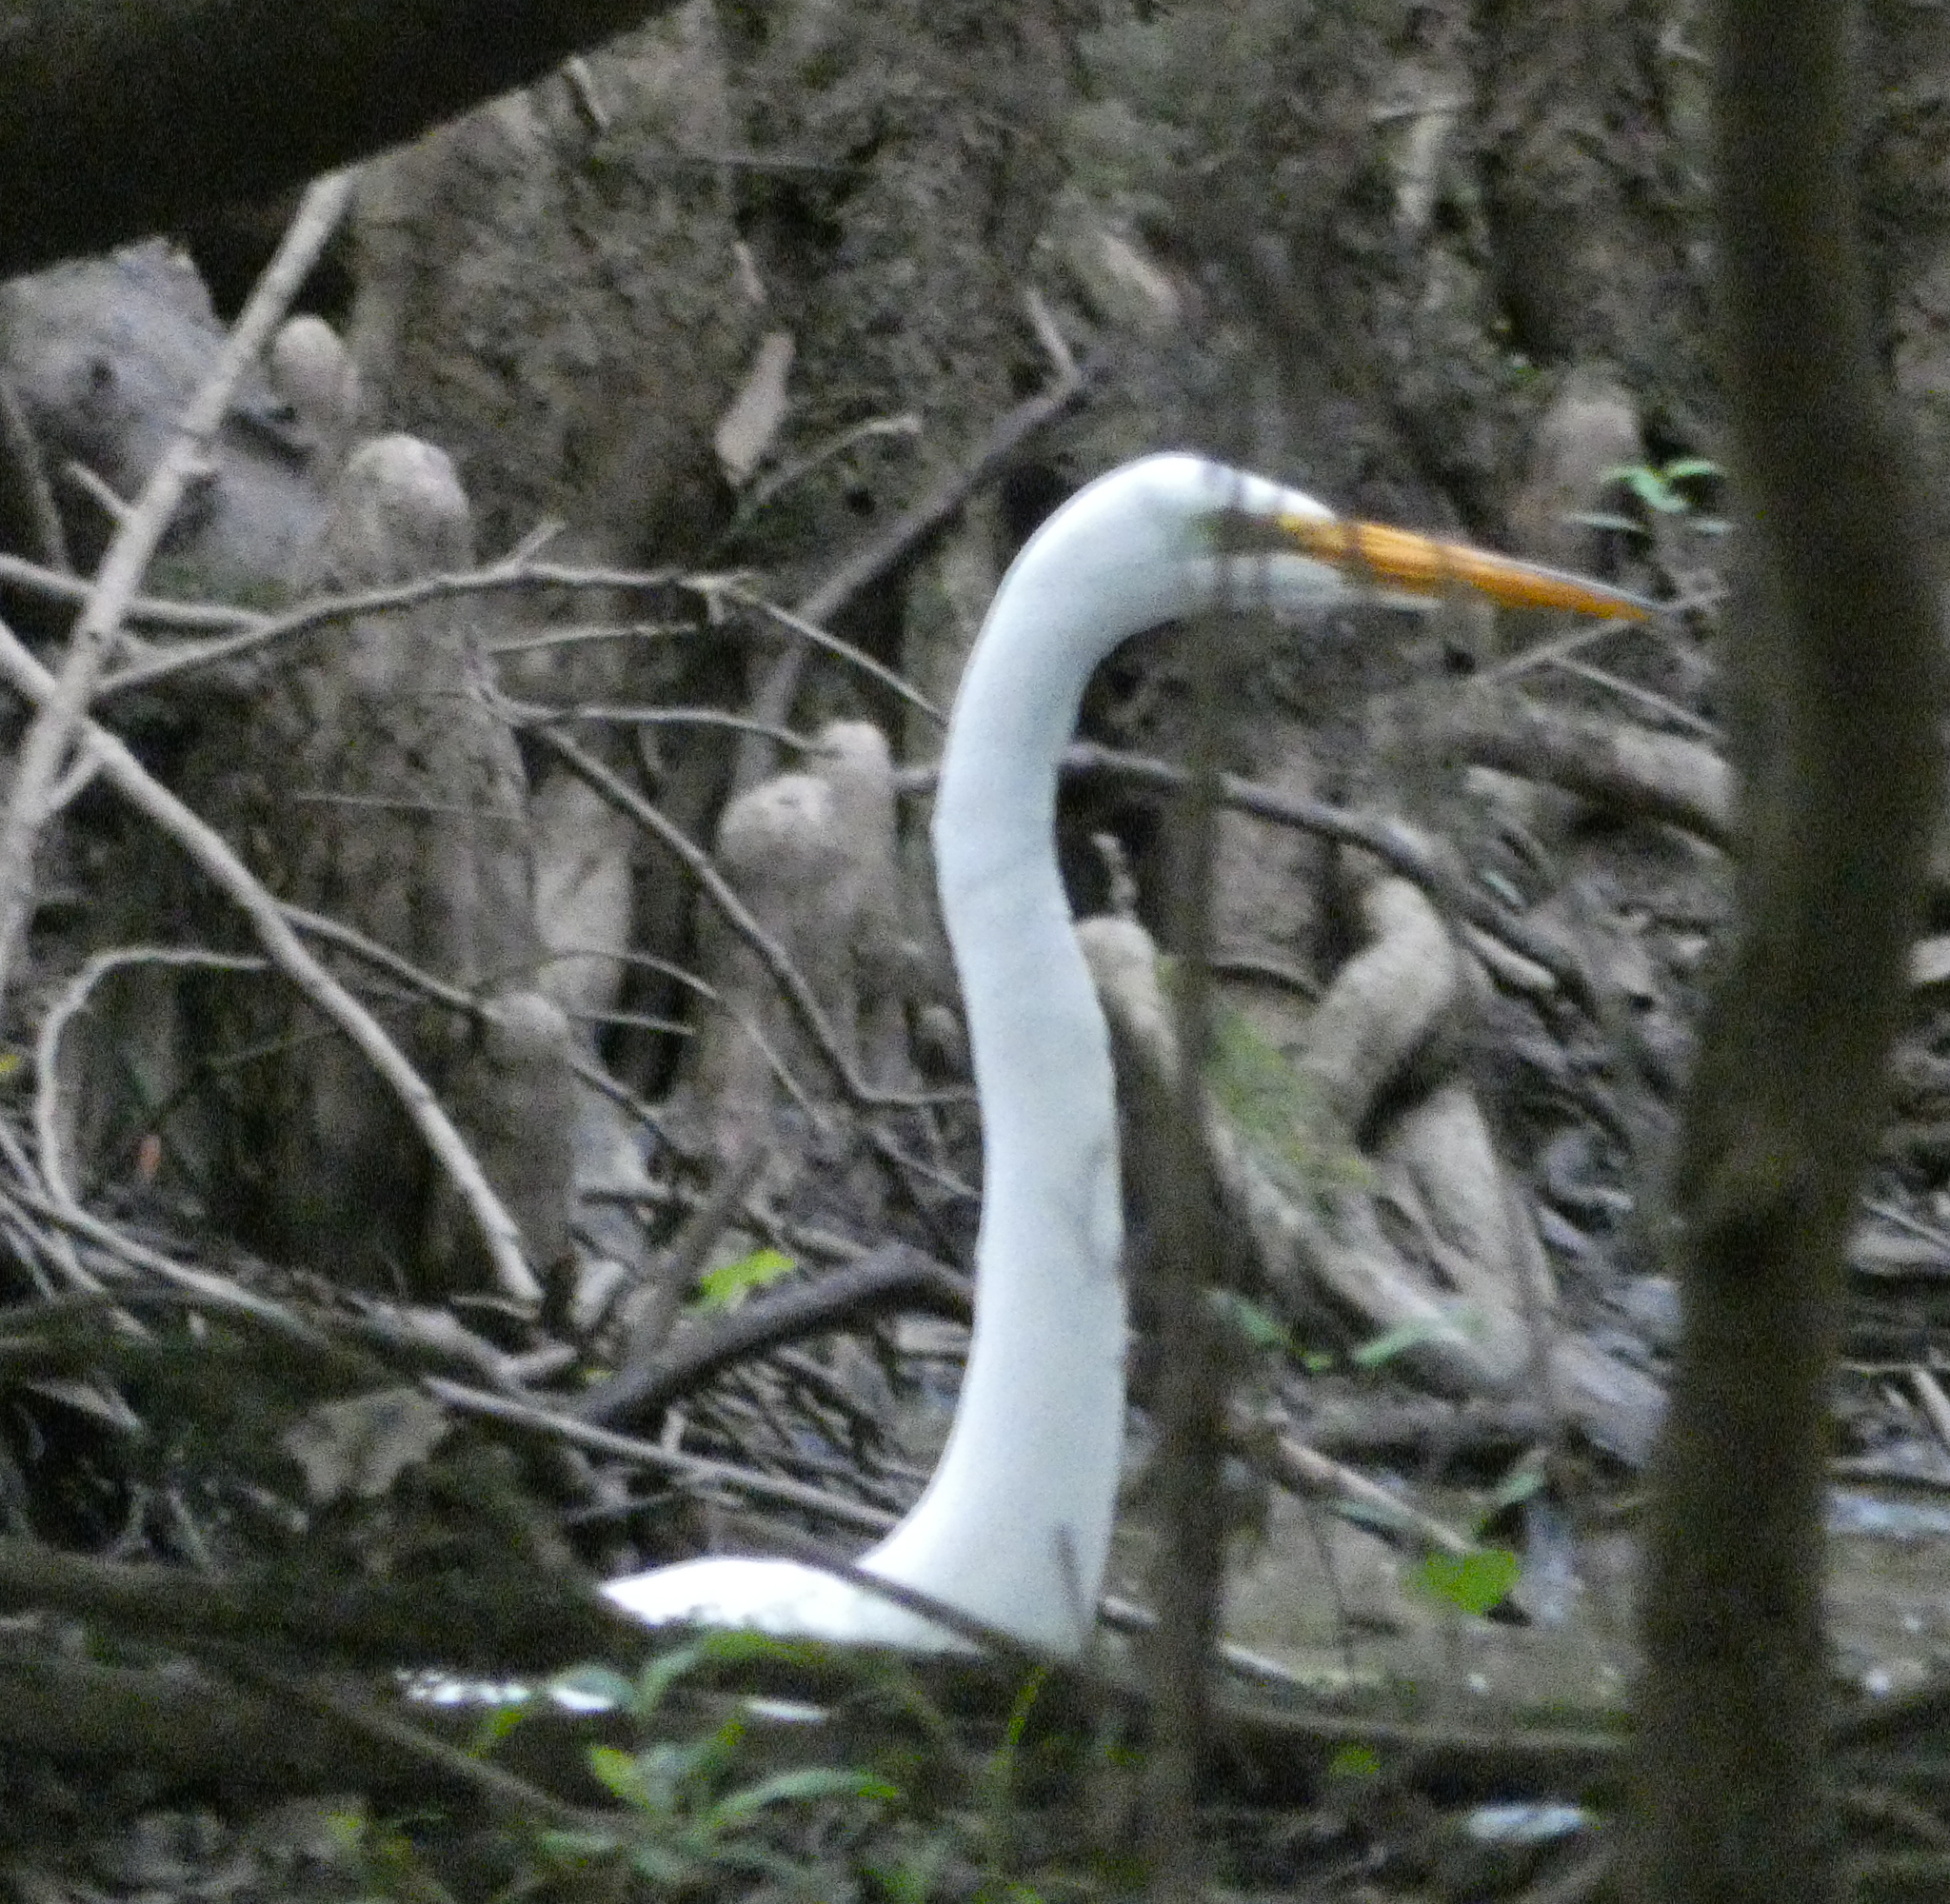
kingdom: Animalia
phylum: Chordata
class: Aves
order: Pelecaniformes
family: Ardeidae
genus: Ardea
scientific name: Ardea alba
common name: Great egret
